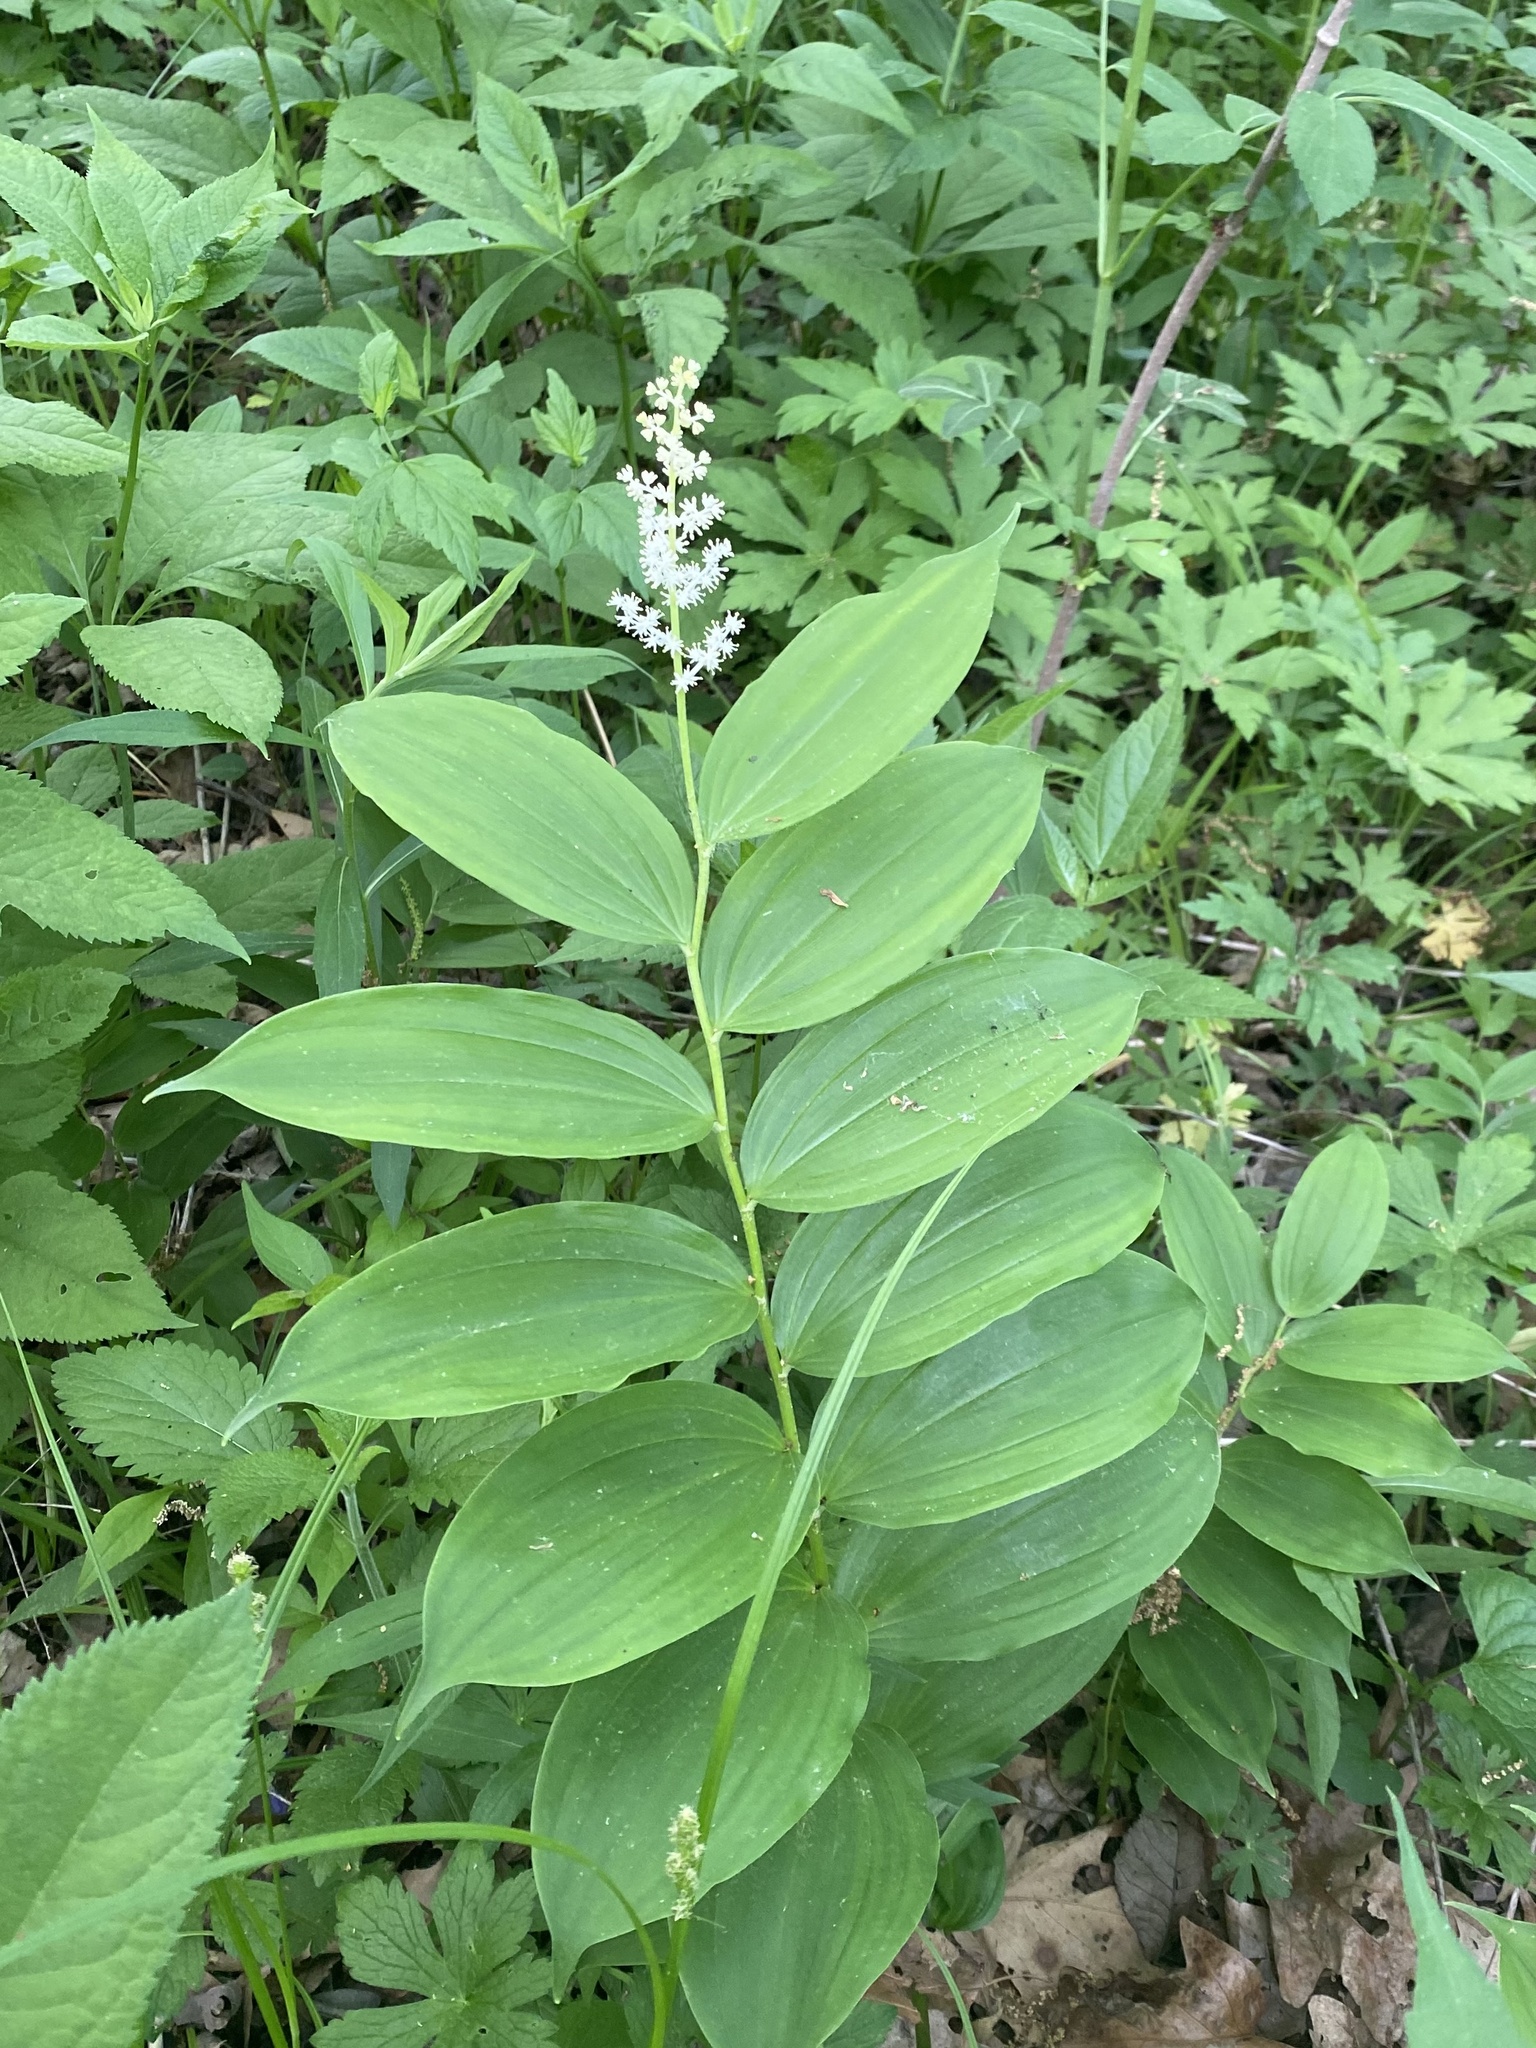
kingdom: Plantae
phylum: Tracheophyta
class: Liliopsida
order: Asparagales
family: Asparagaceae
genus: Maianthemum
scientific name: Maianthemum racemosum
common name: False spikenard
